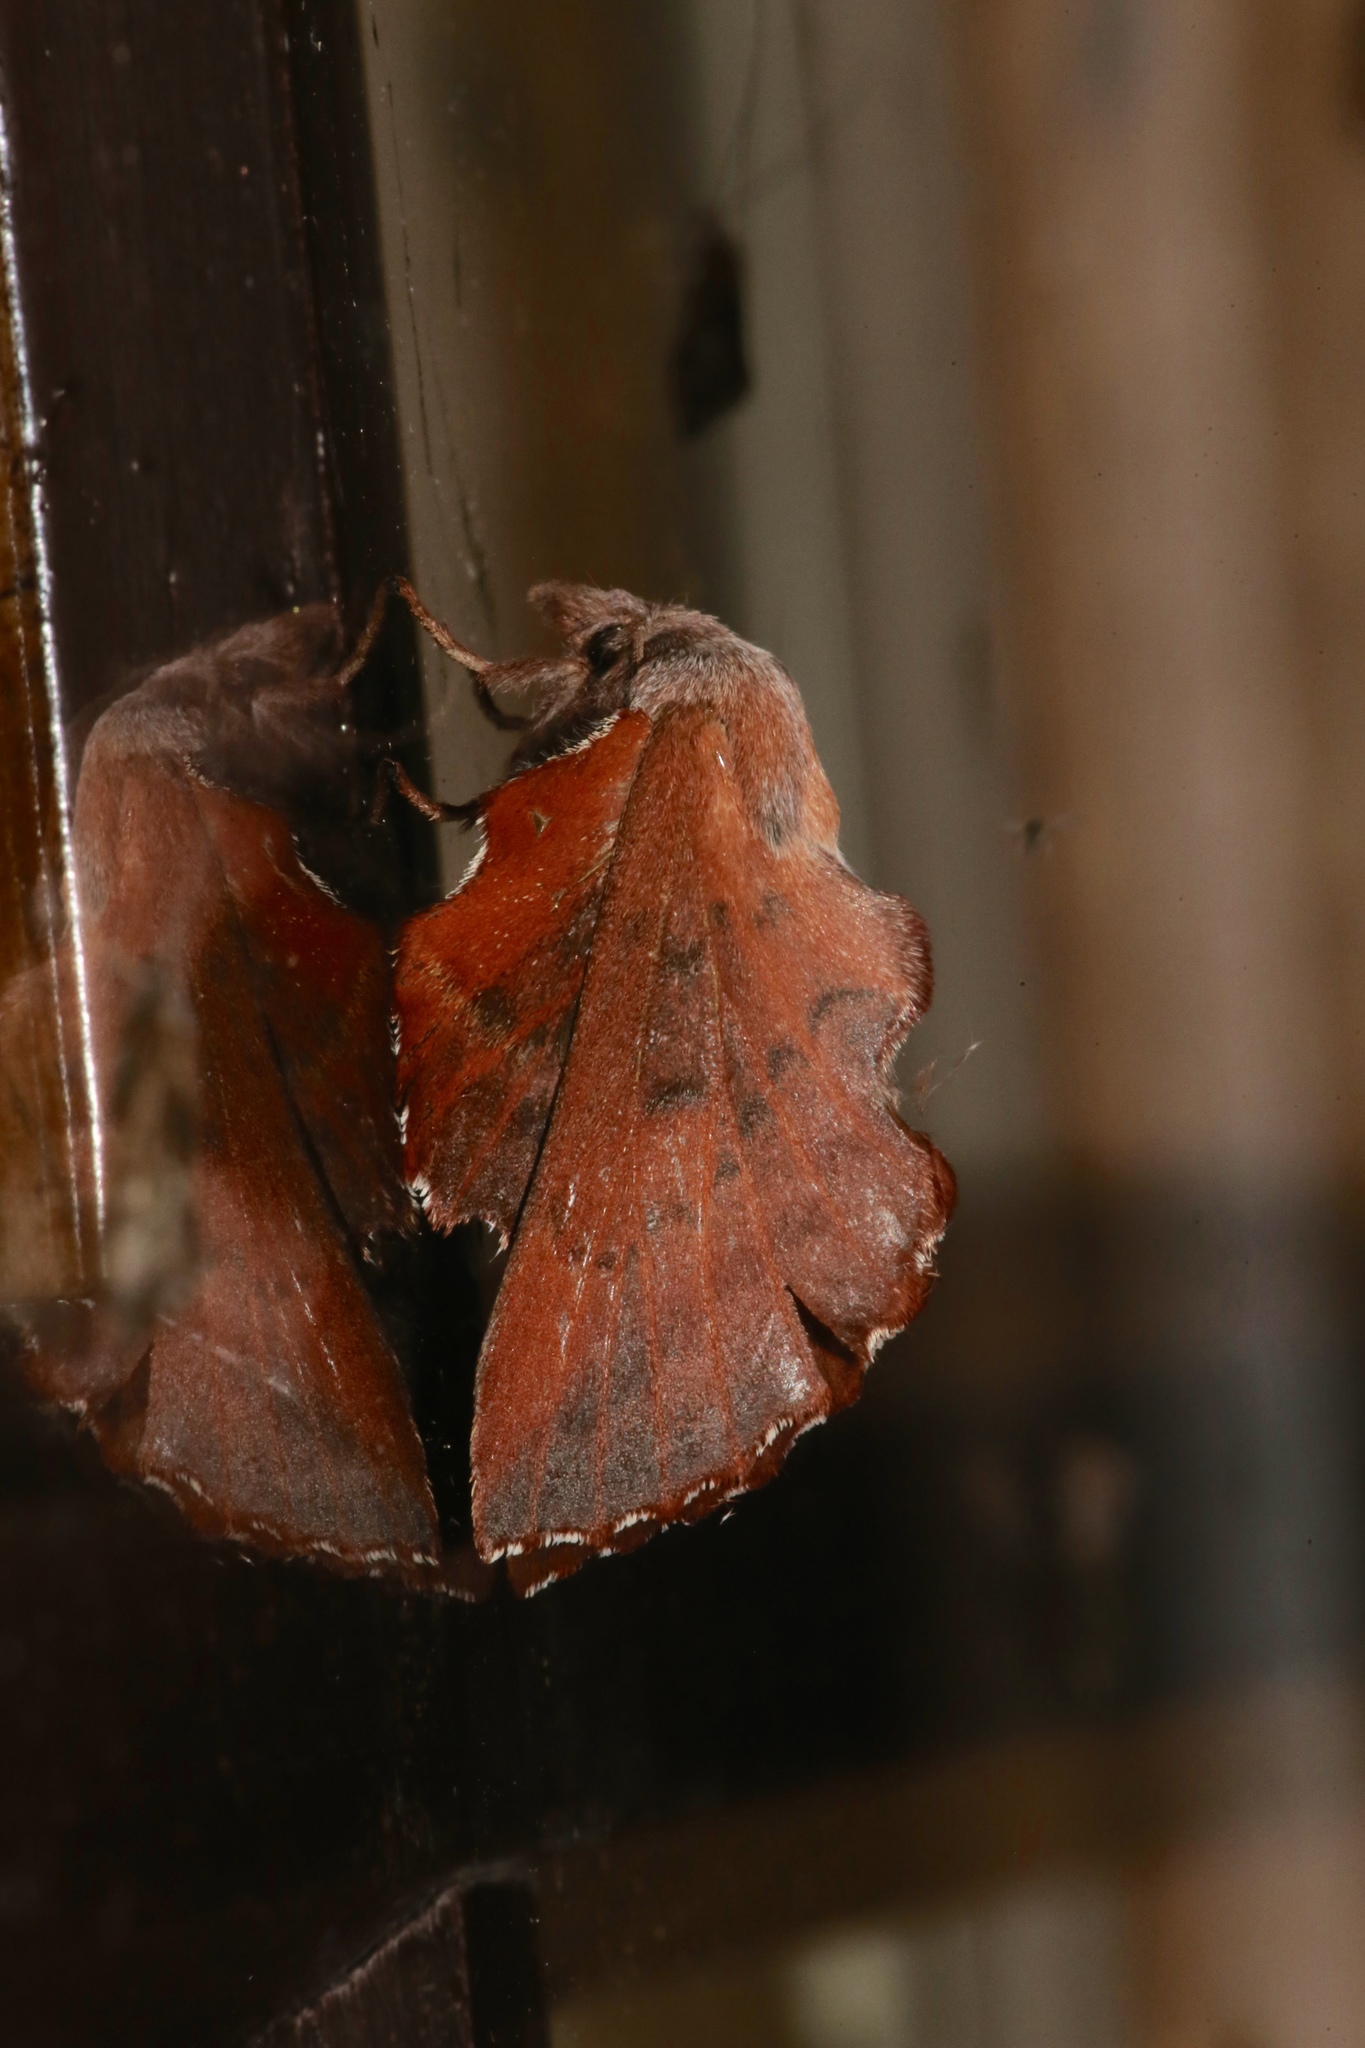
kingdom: Animalia
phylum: Arthropoda
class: Insecta
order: Lepidoptera
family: Lasiocampidae
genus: Phyllodesma
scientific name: Phyllodesma americana
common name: American lappet moth
